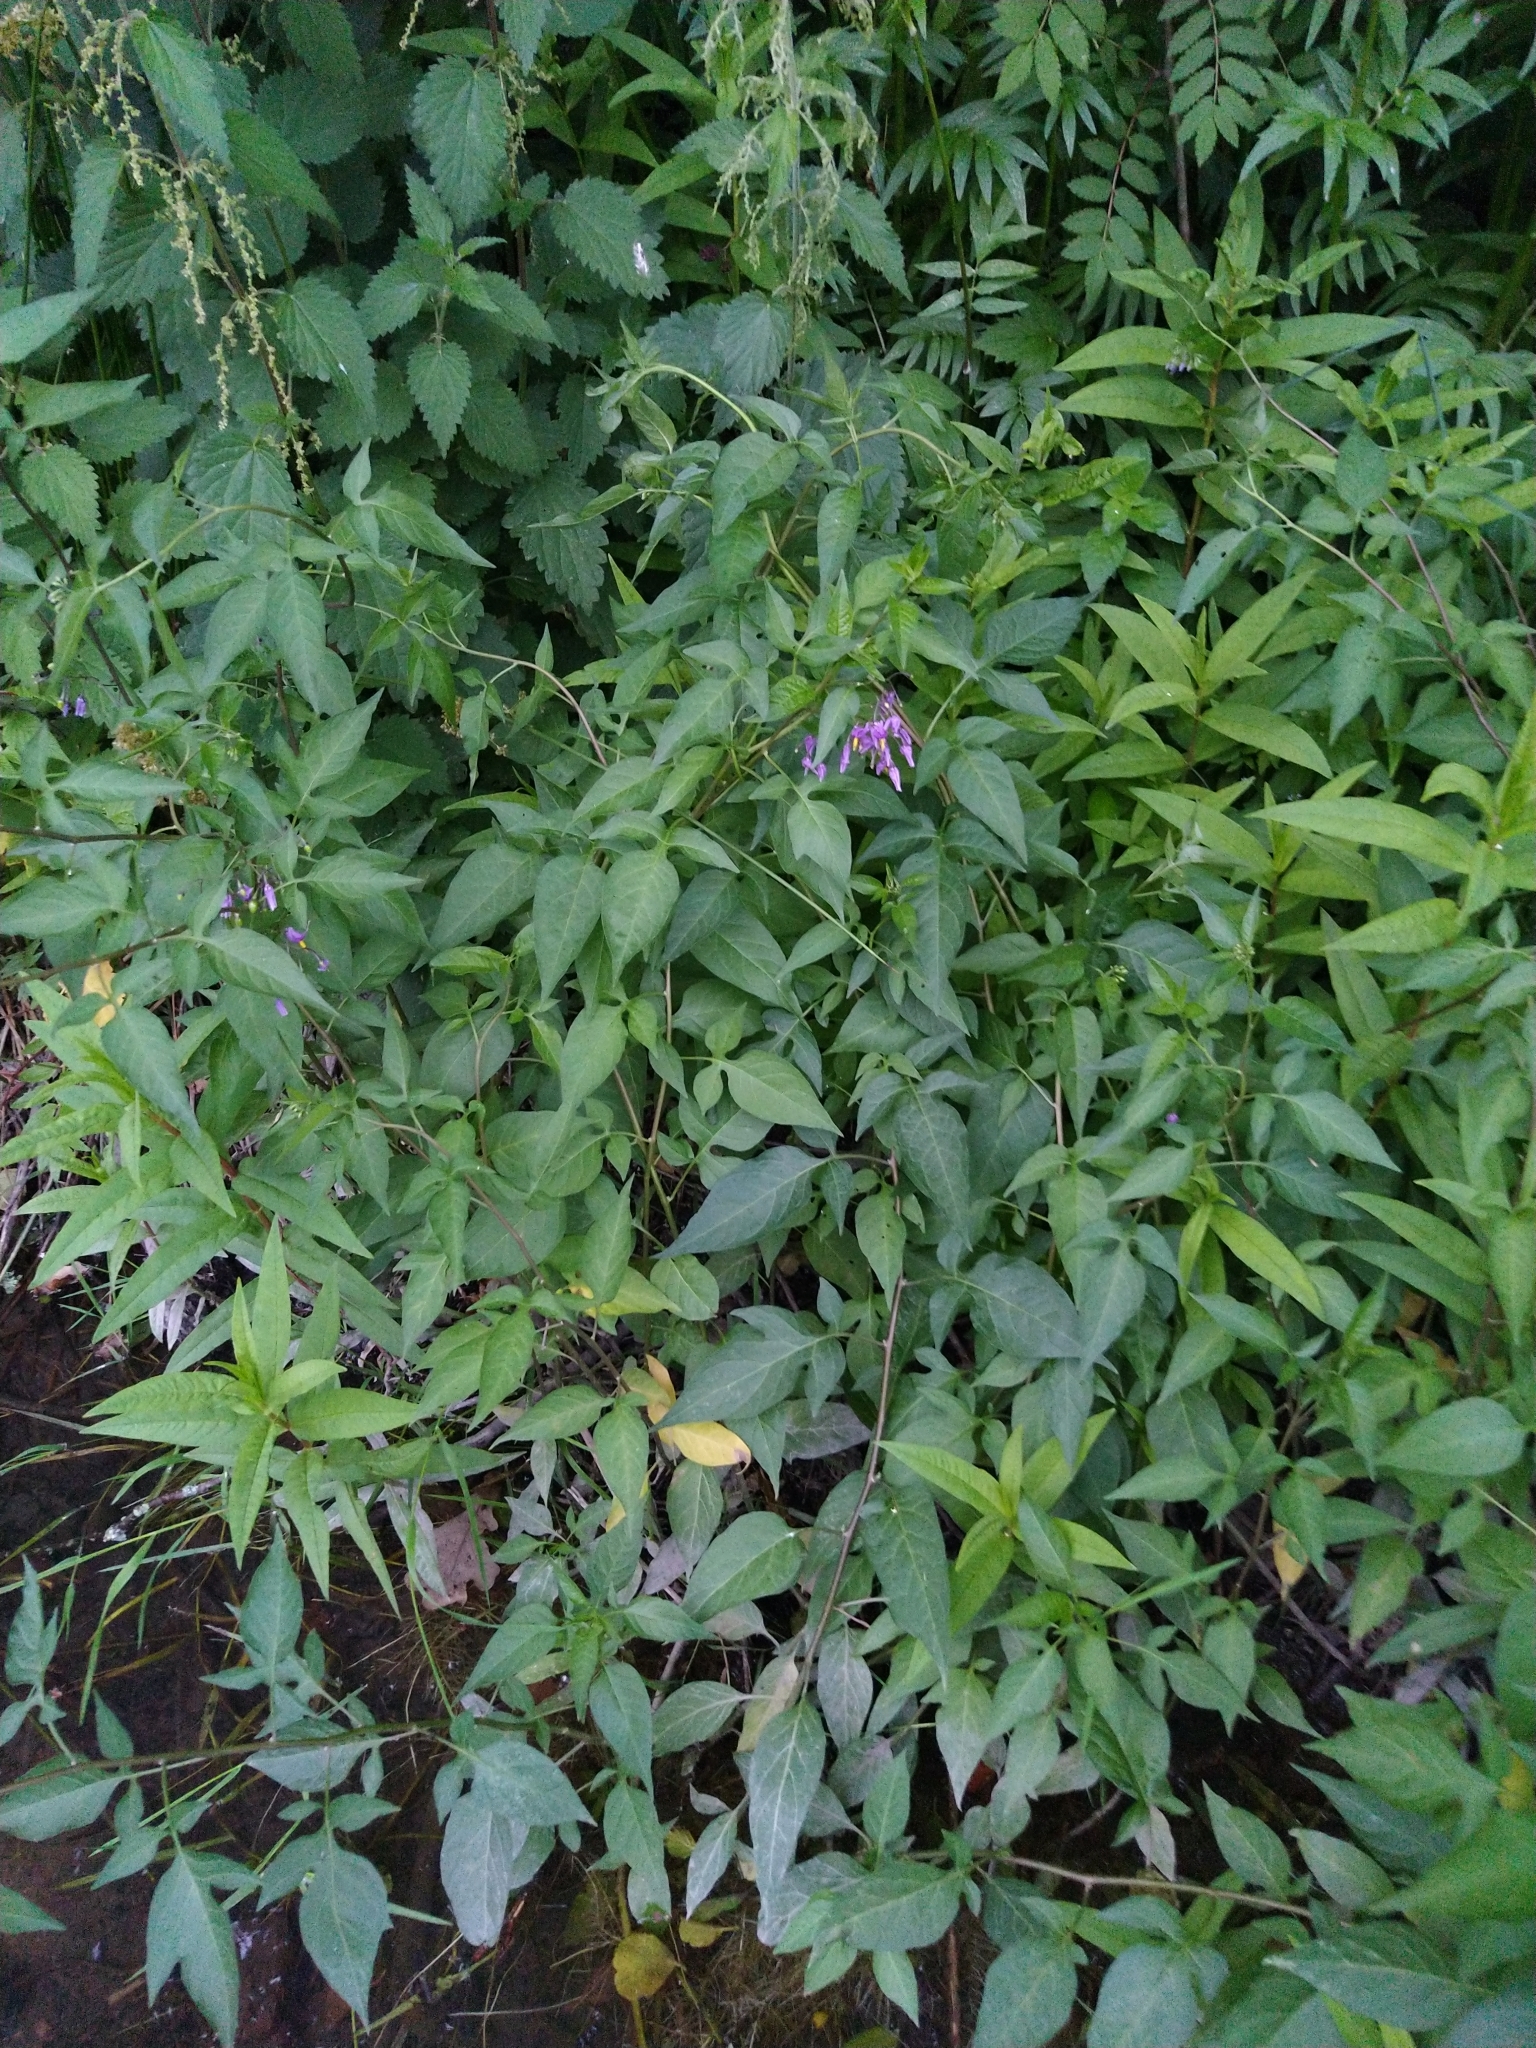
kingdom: Plantae
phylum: Tracheophyta
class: Magnoliopsida
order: Solanales
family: Solanaceae
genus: Solanum
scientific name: Solanum dulcamara
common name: Climbing nightshade
